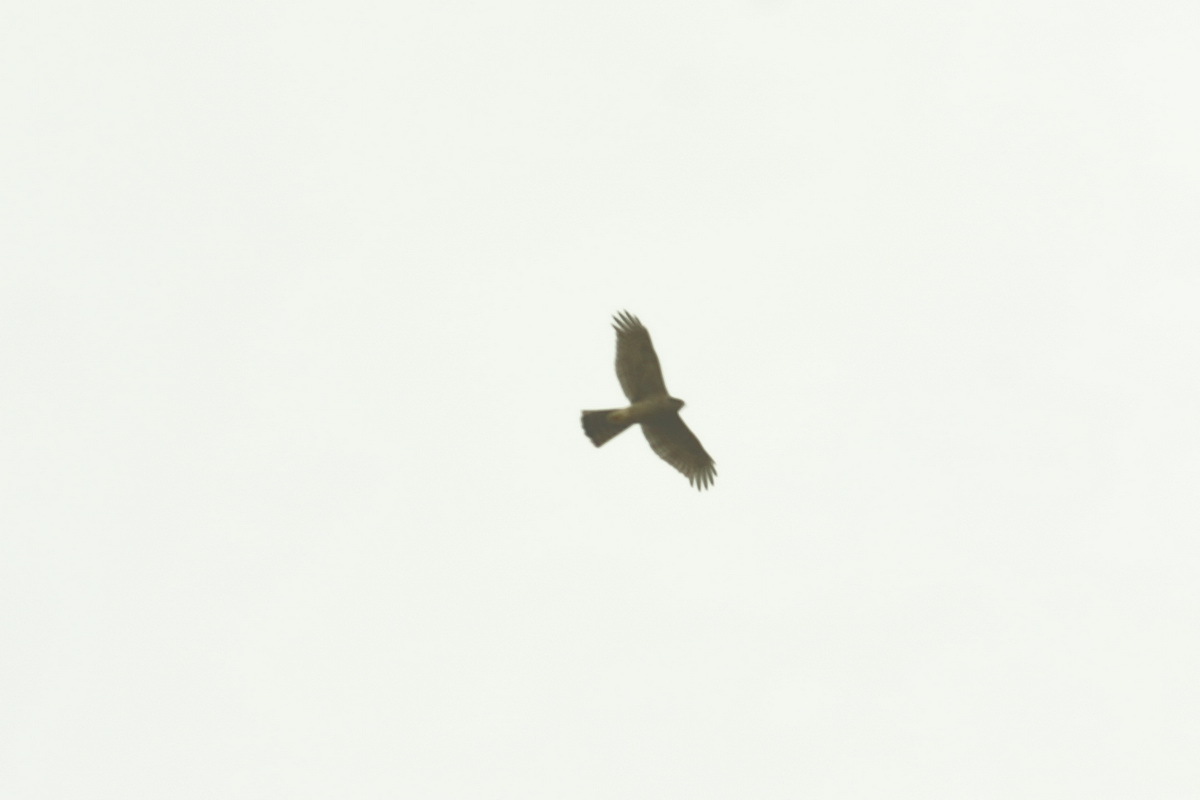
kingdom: Animalia
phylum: Chordata
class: Aves
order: Accipitriformes
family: Accipitridae
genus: Accipiter
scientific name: Accipiter nisus
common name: Eurasian sparrowhawk
